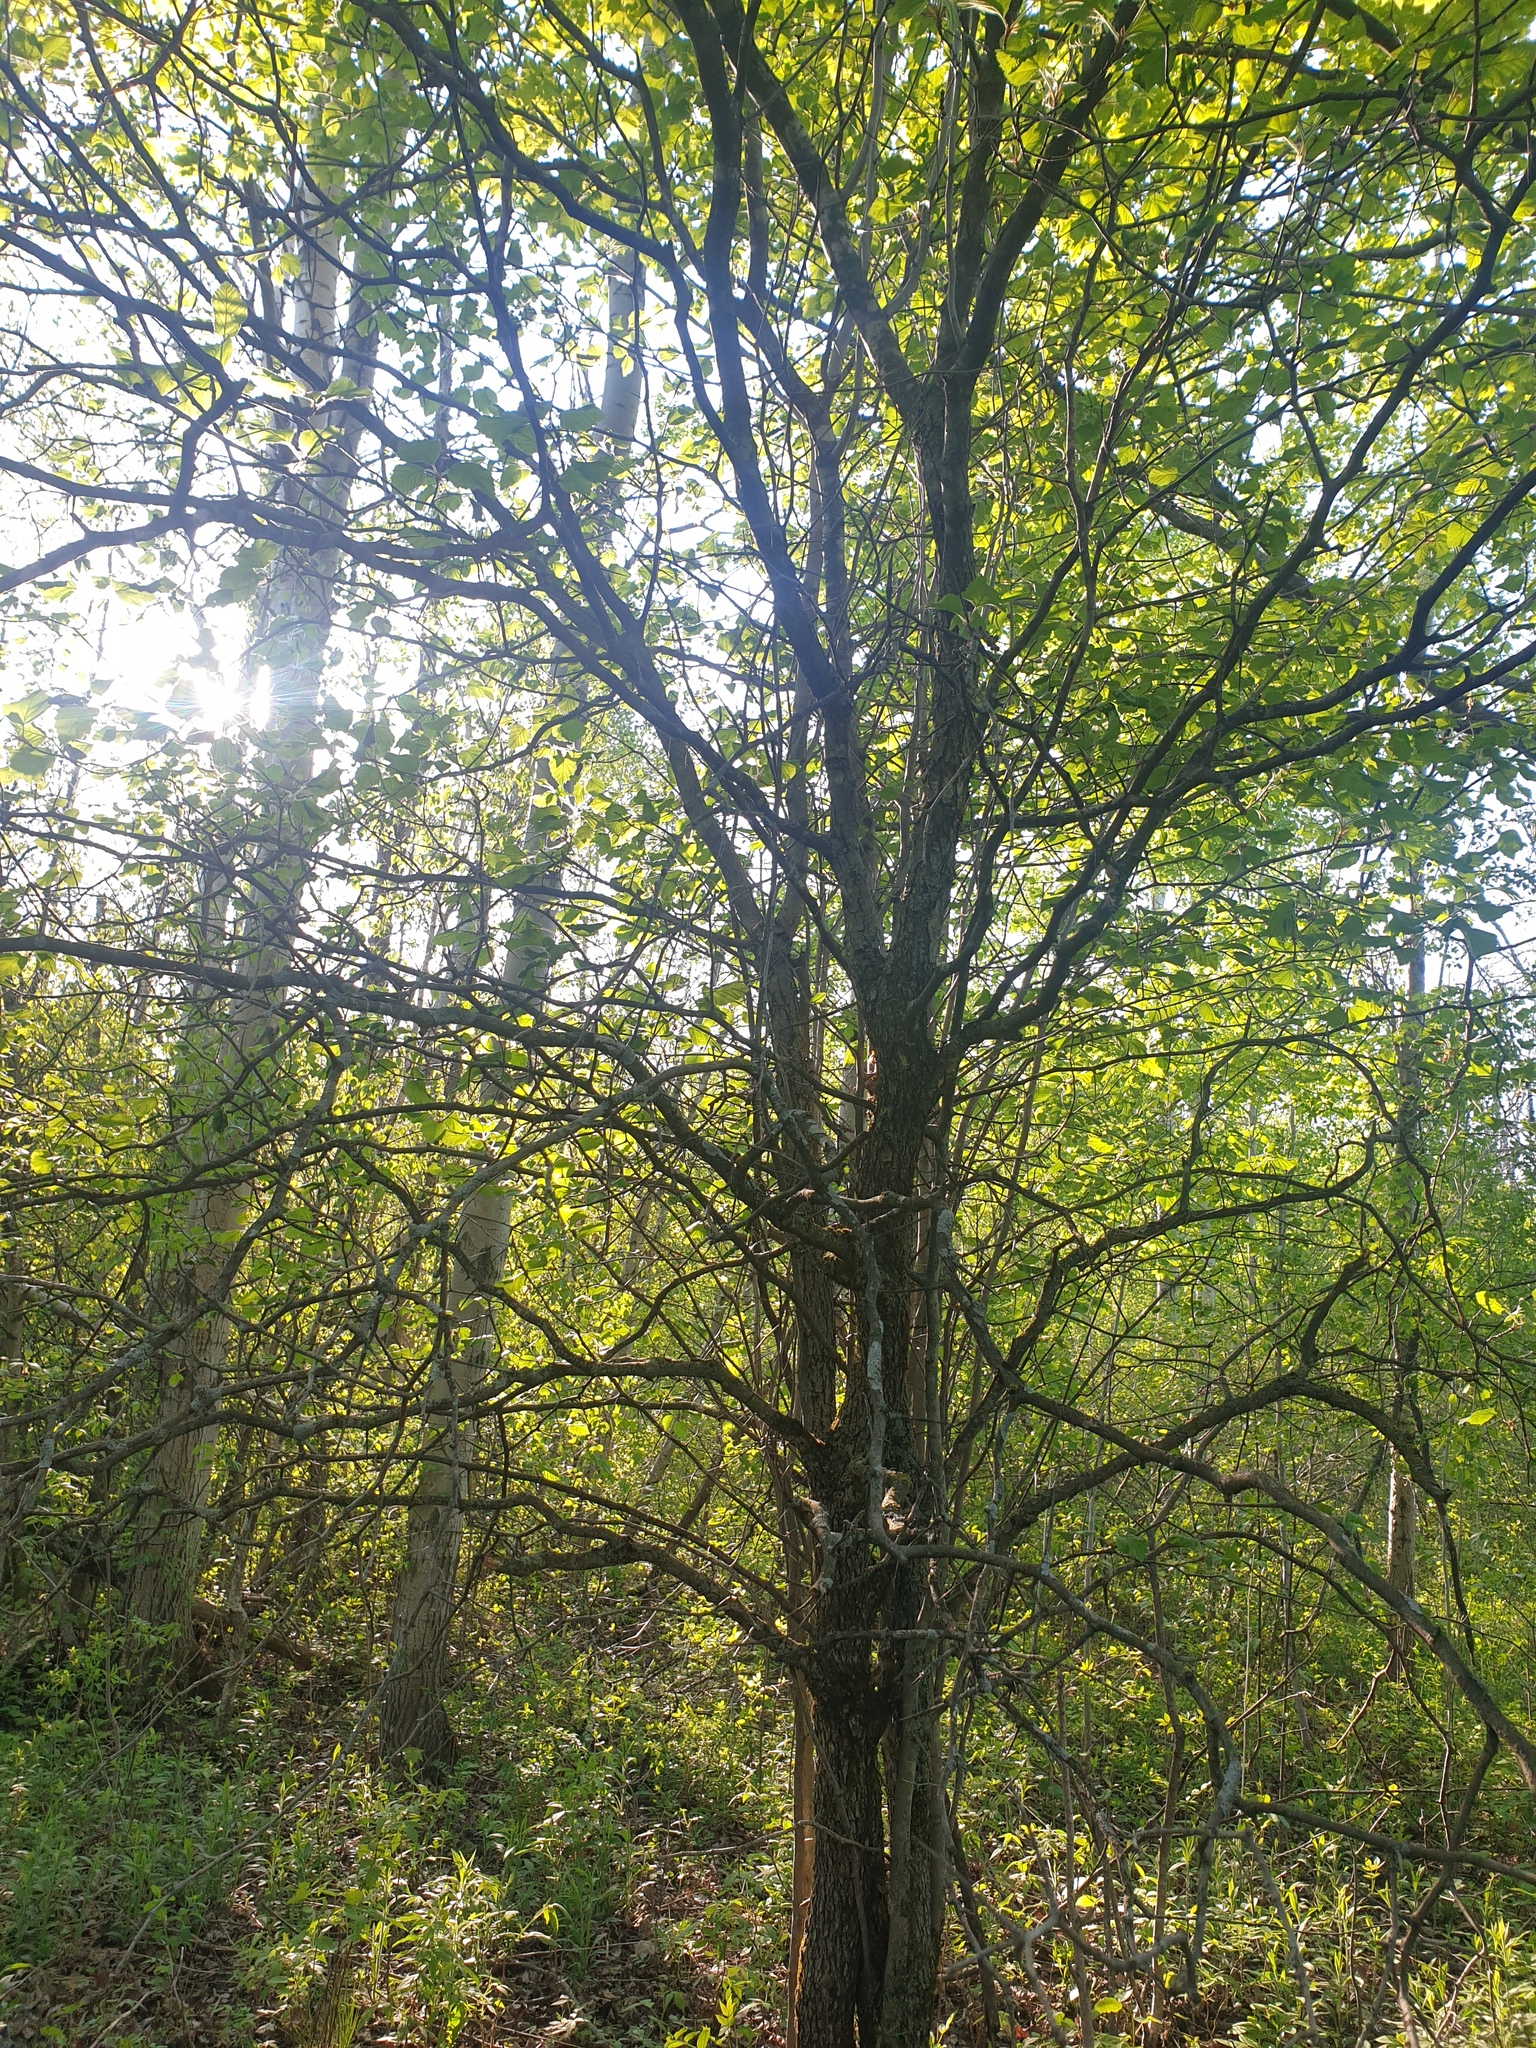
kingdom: Plantae
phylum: Tracheophyta
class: Magnoliopsida
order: Rosales
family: Rosaceae
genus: Crataegus
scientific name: Crataegus submollis
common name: Hairy cockspurthorn
